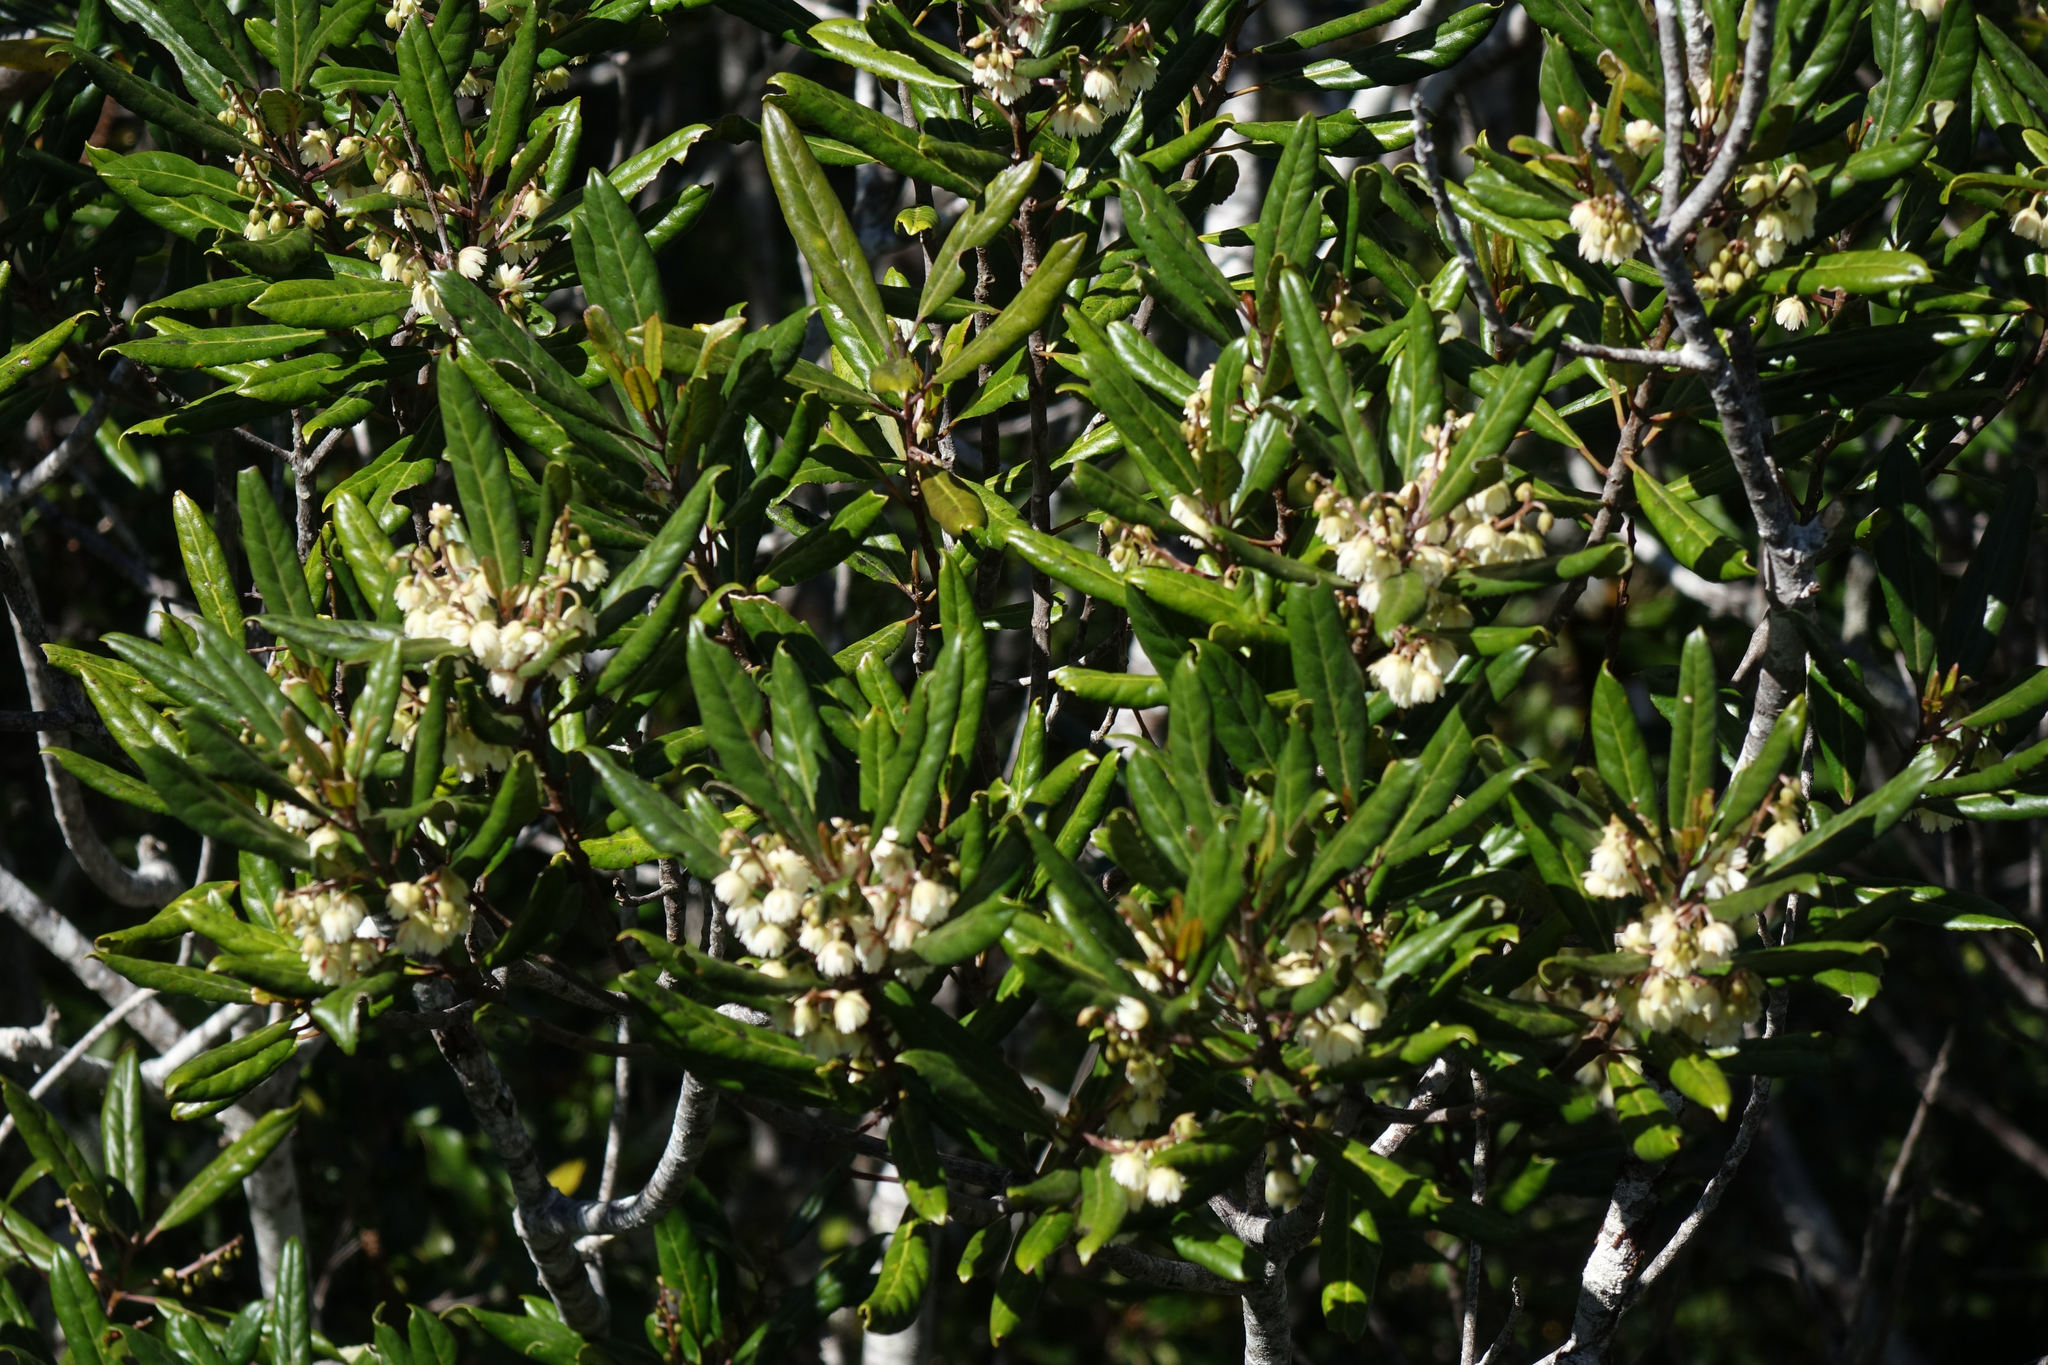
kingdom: Plantae
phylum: Tracheophyta
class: Magnoliopsida
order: Oxalidales
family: Elaeocarpaceae
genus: Elaeocarpus
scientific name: Elaeocarpus dentatus
